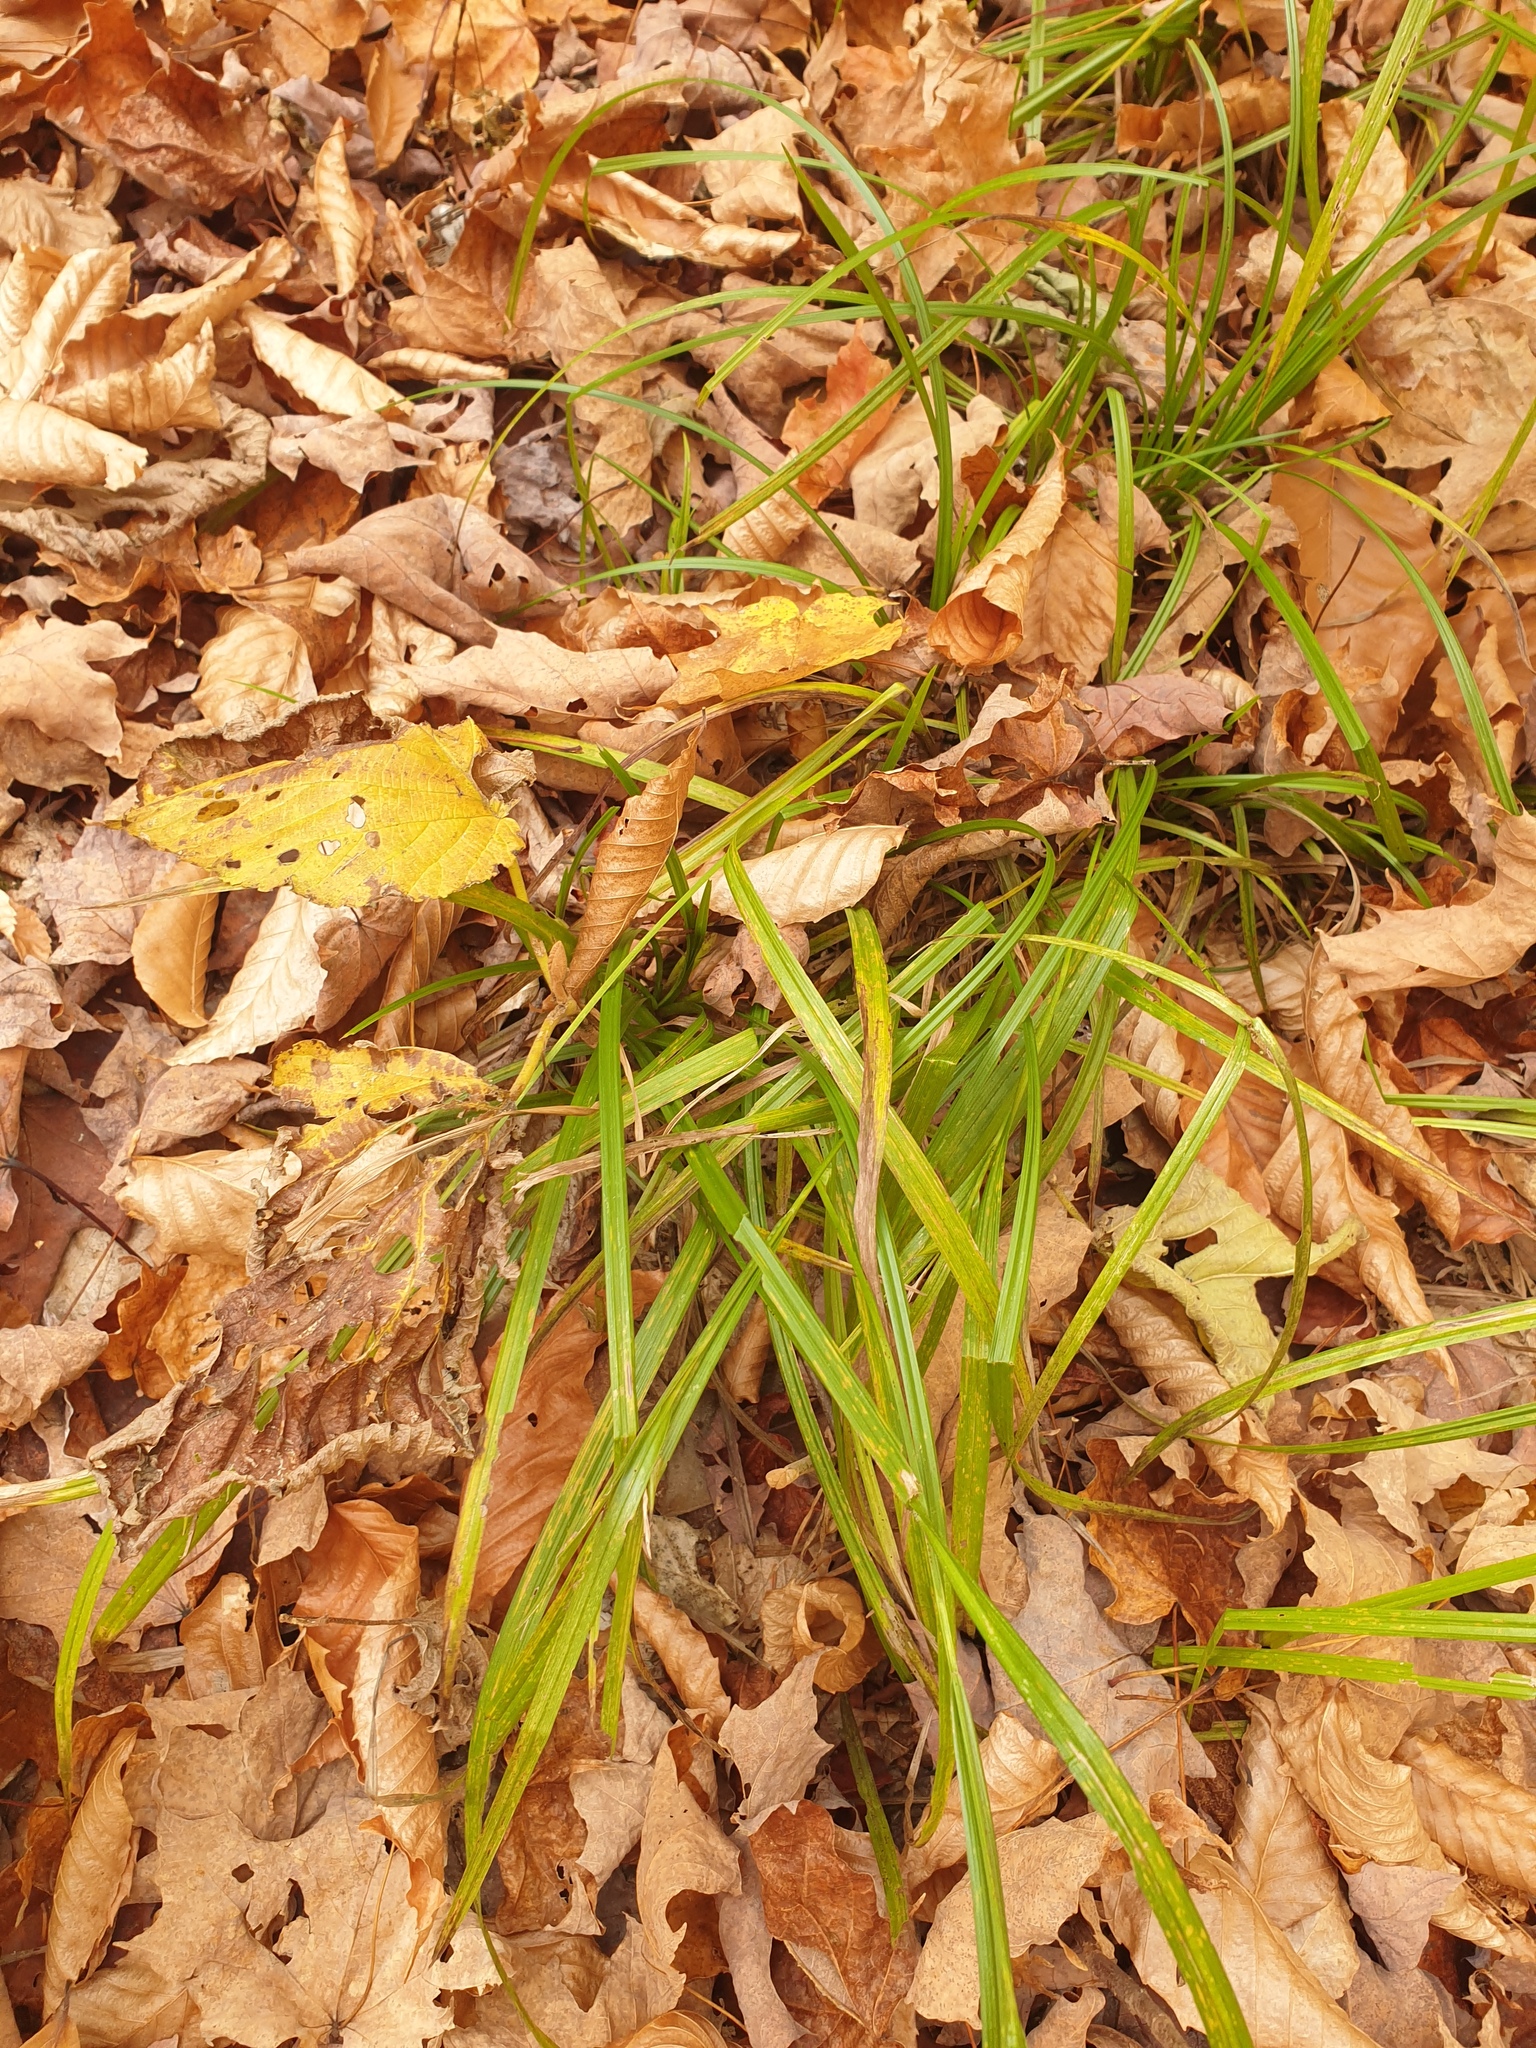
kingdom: Plantae
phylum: Tracheophyta
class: Liliopsida
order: Poales
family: Cyperaceae
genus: Carex
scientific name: Carex intumescens
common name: Greater bladder sedge
